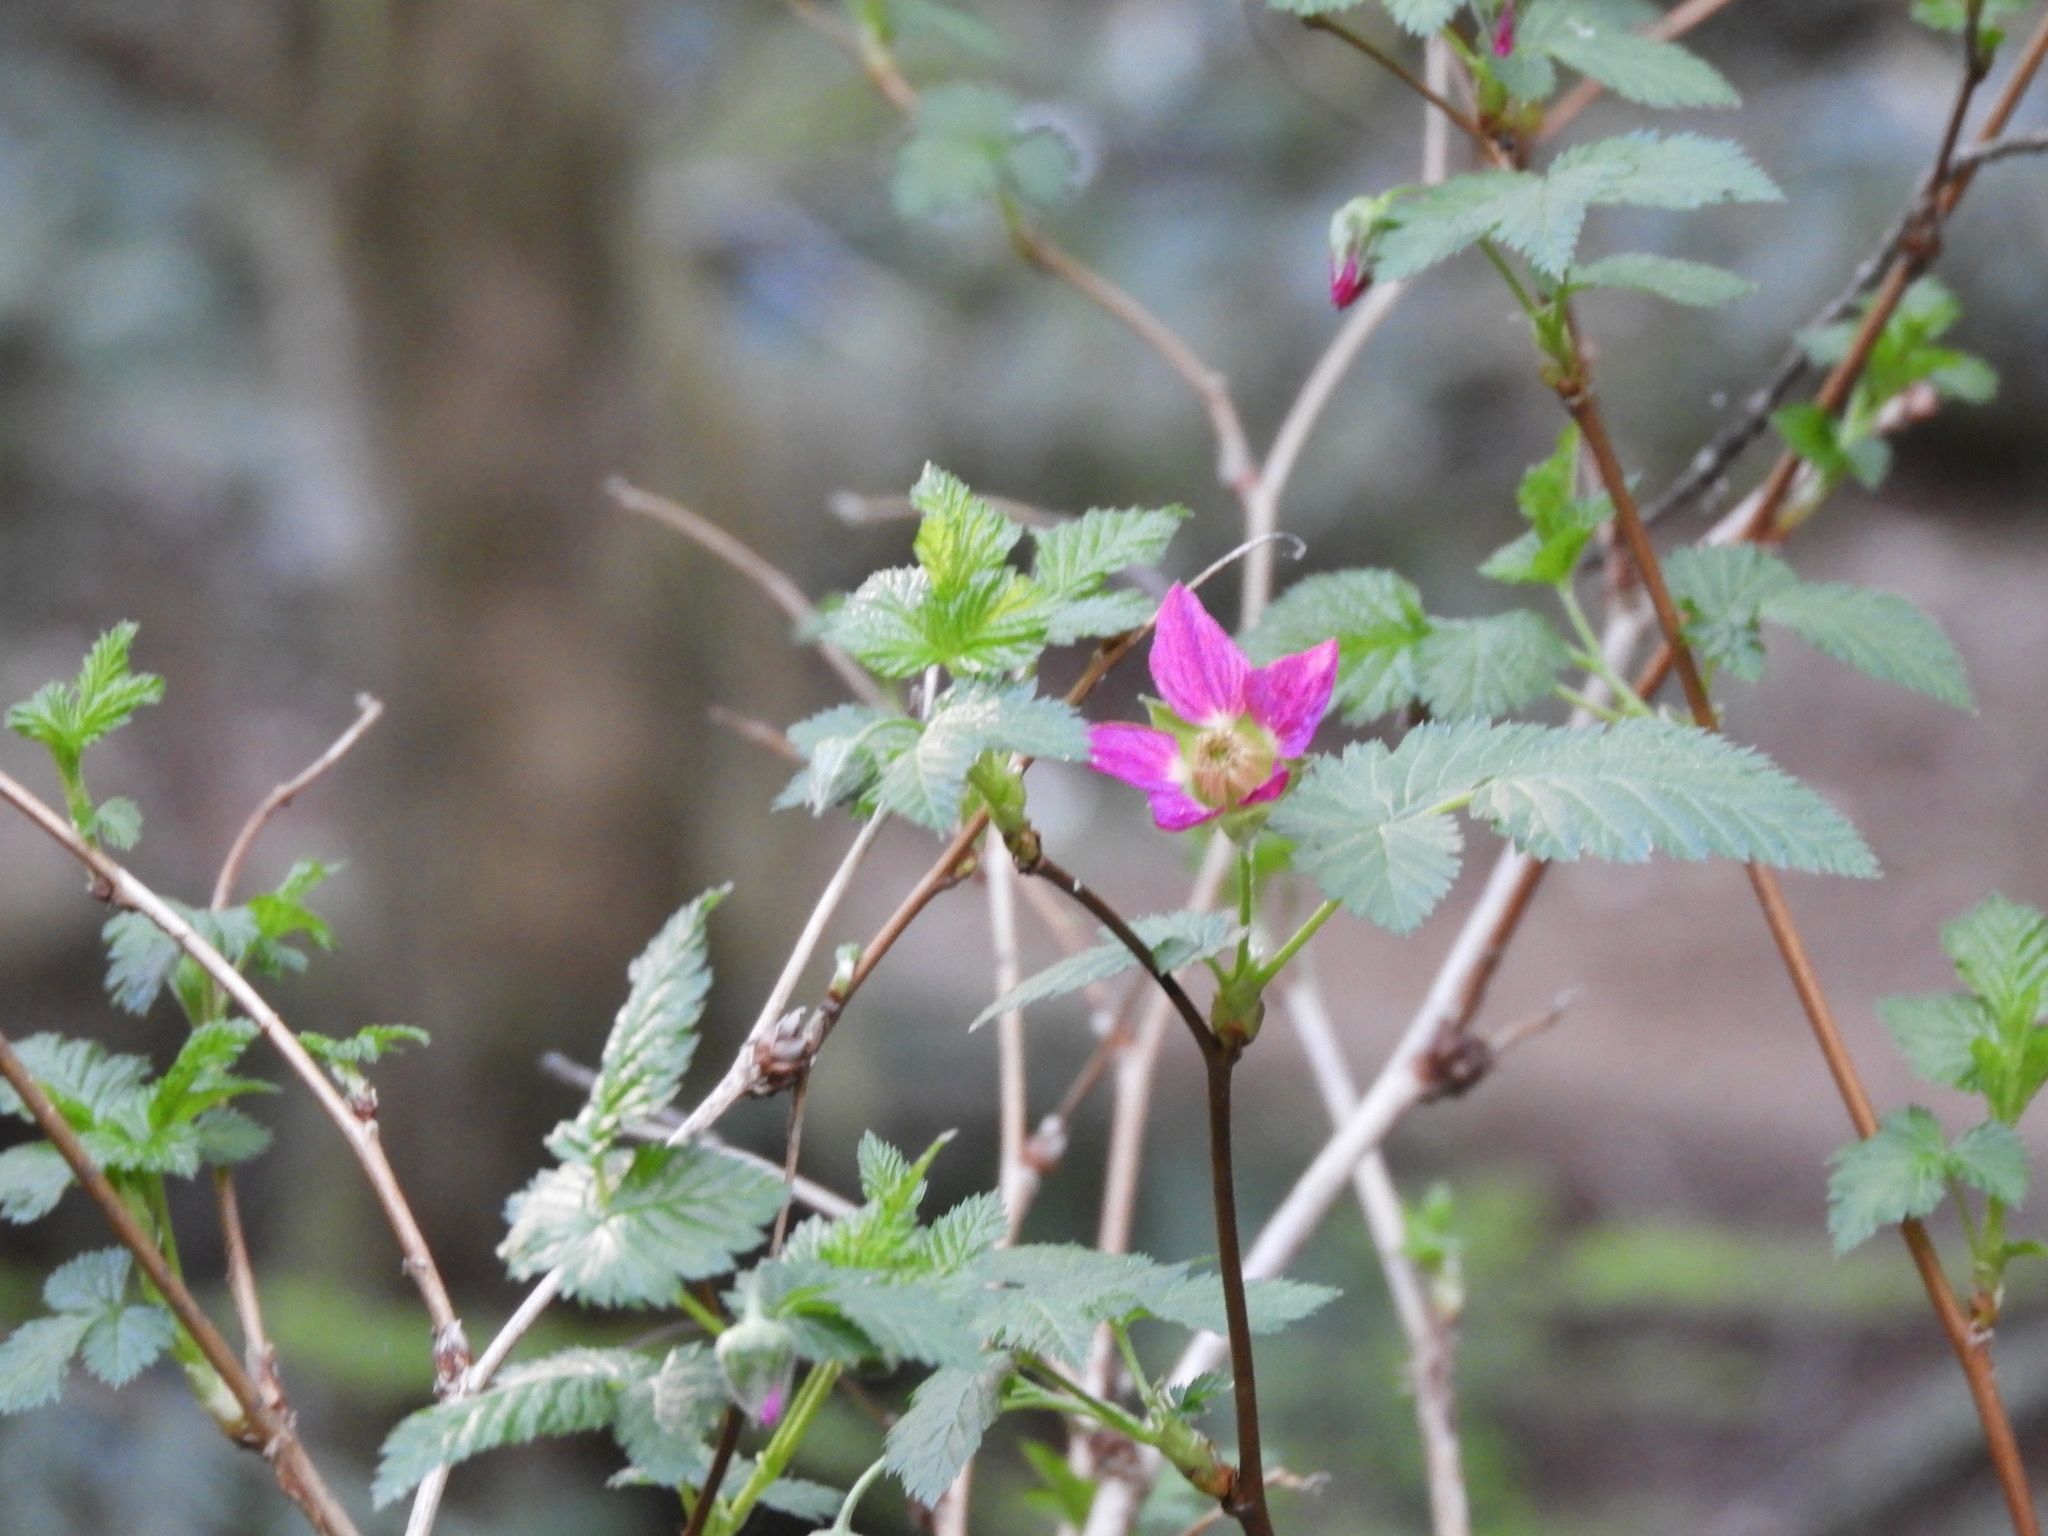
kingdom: Plantae
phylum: Tracheophyta
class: Magnoliopsida
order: Rosales
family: Rosaceae
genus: Rubus
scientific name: Rubus spectabilis
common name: Salmonberry
